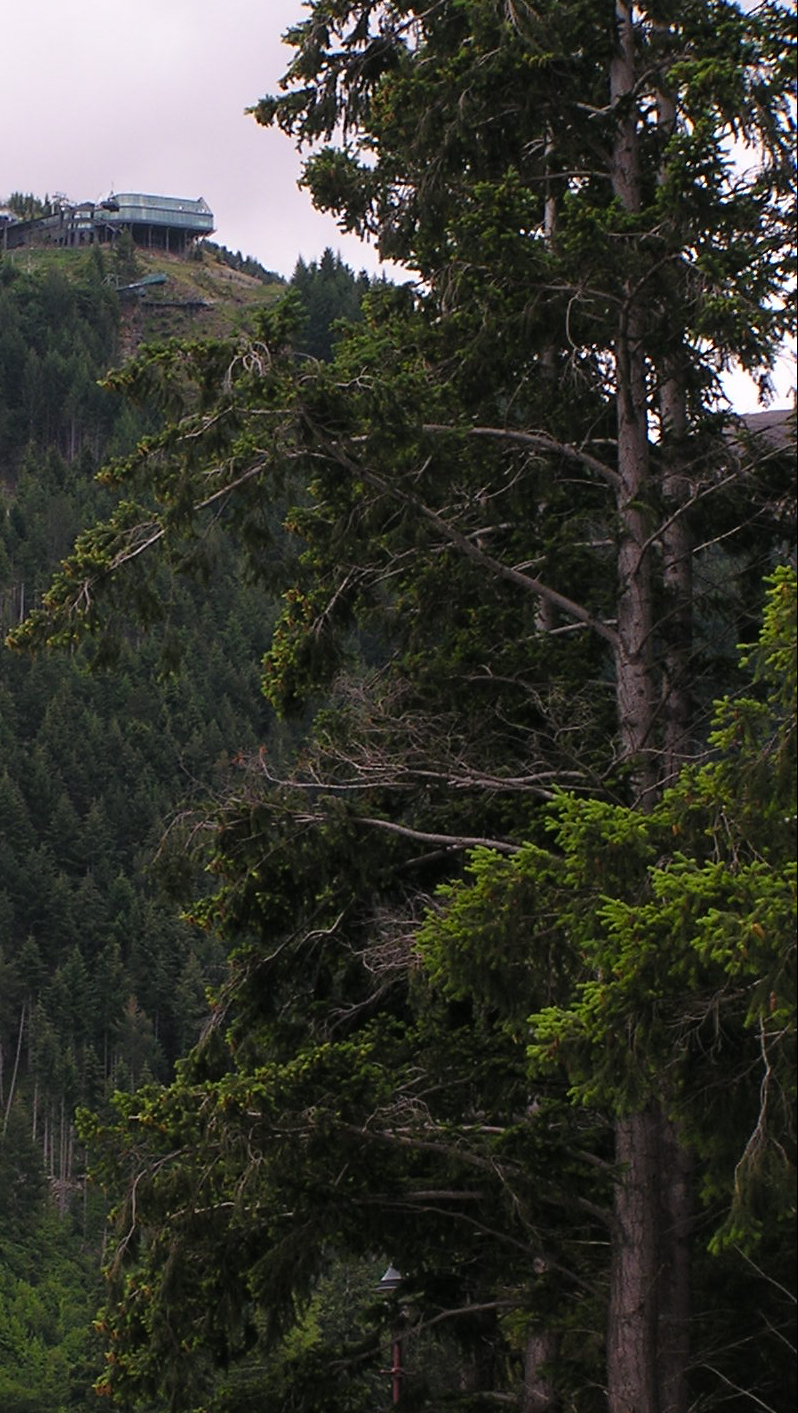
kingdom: Plantae
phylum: Tracheophyta
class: Pinopsida
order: Pinales
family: Pinaceae
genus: Pseudotsuga
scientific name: Pseudotsuga menziesii
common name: Douglas fir
